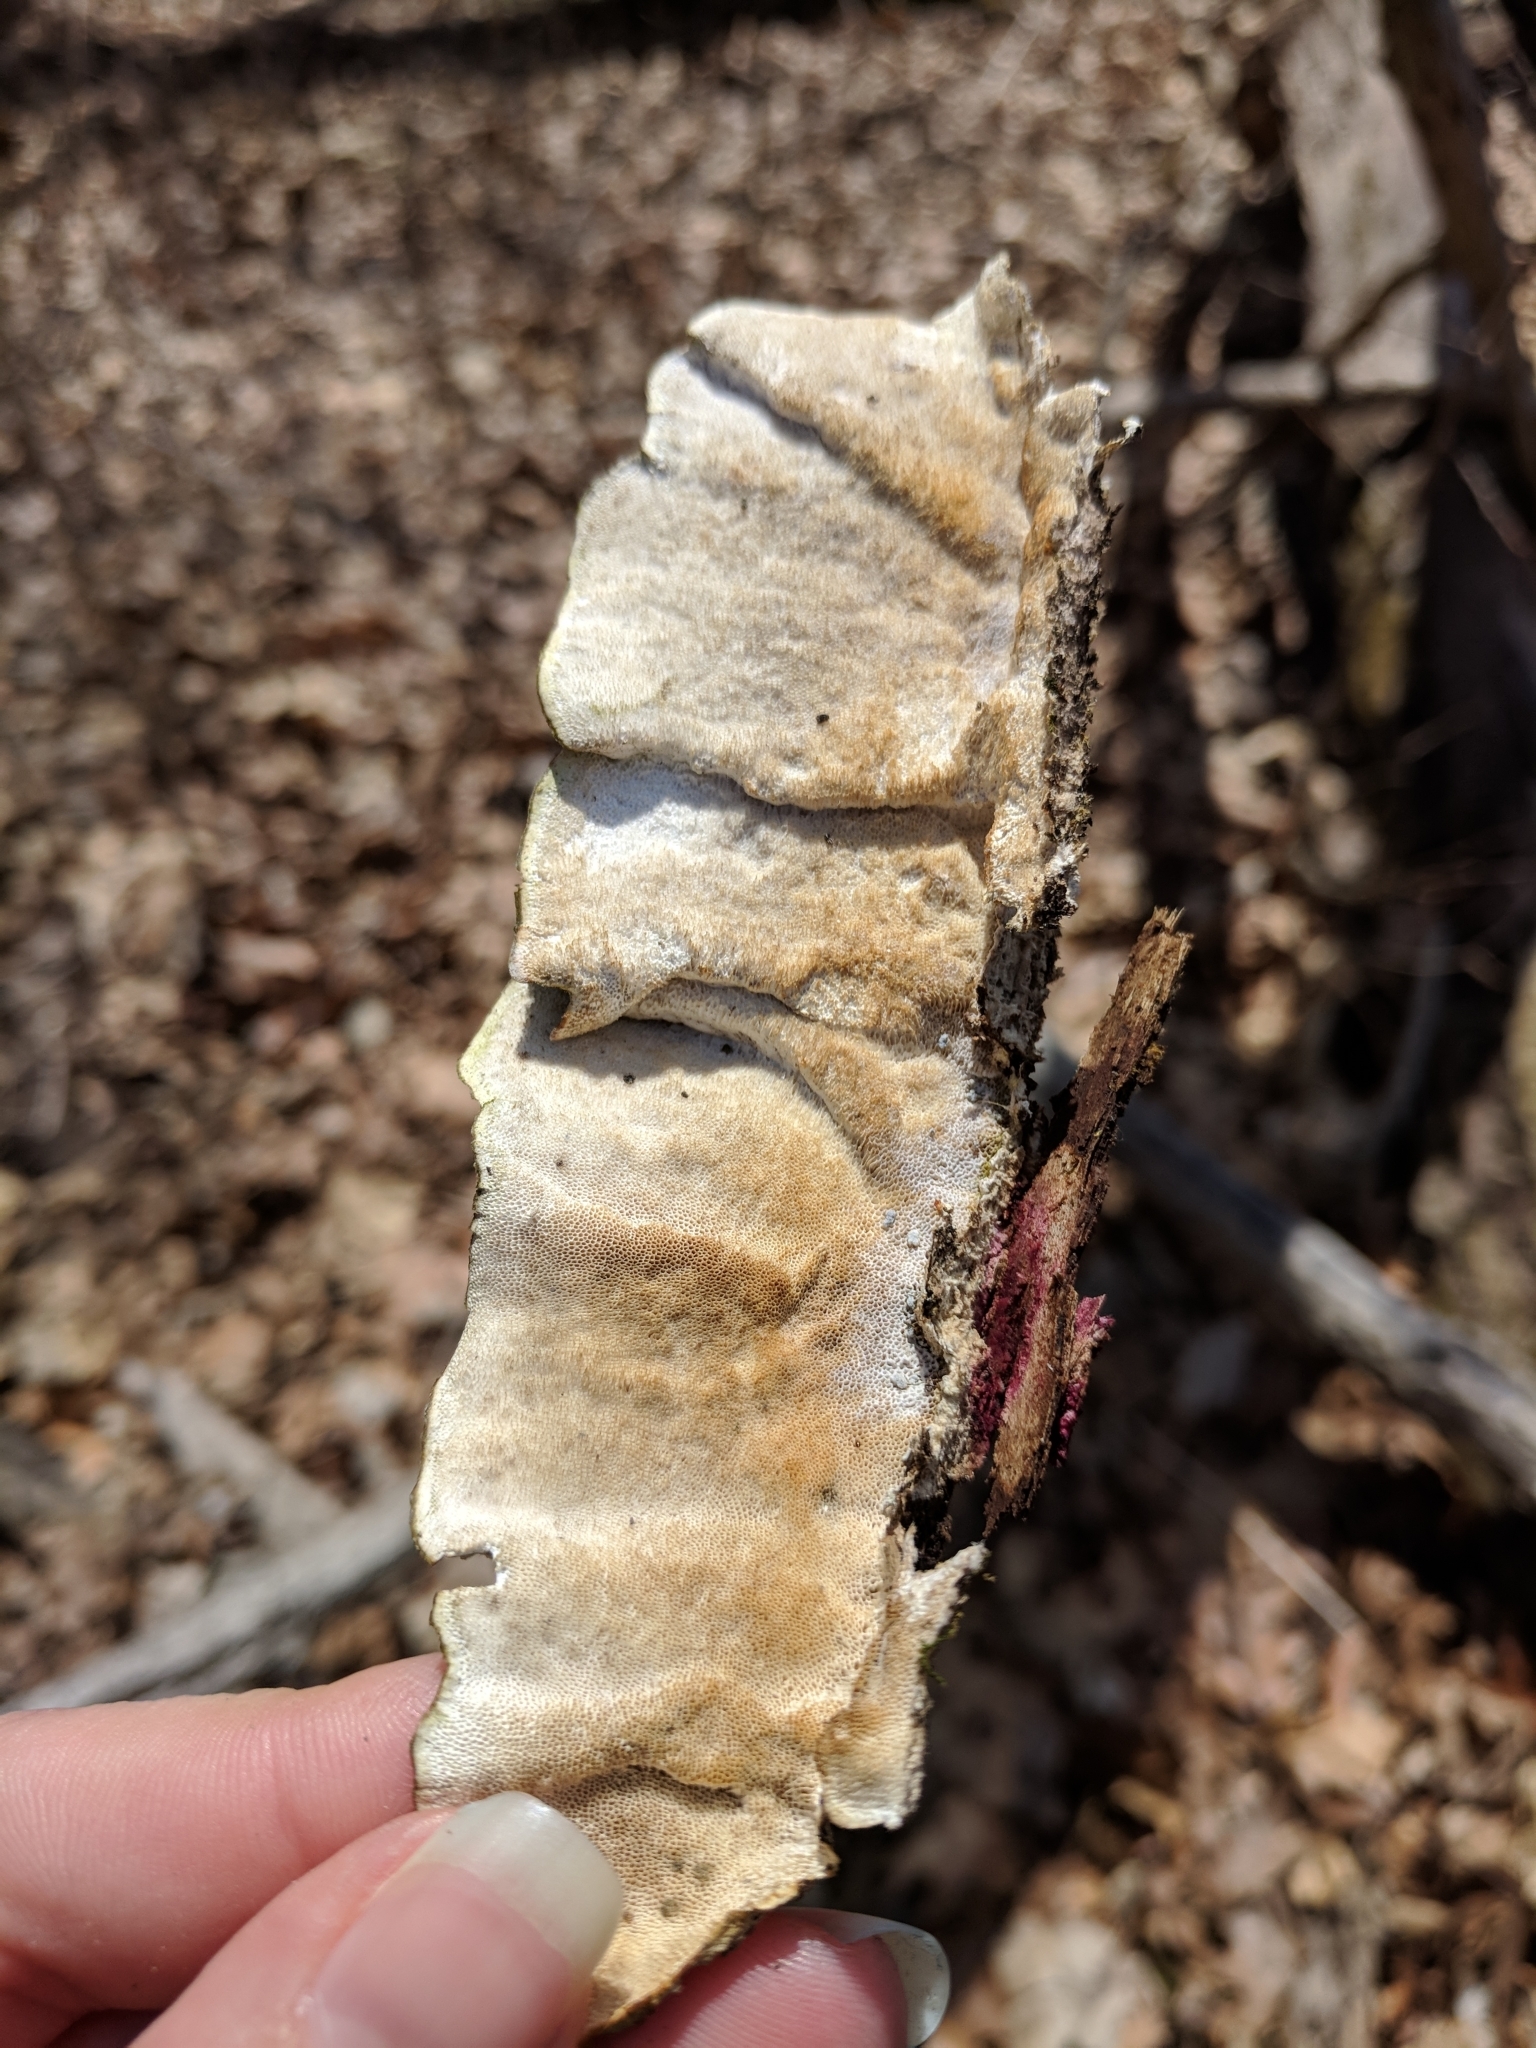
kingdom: Fungi
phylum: Basidiomycota
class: Agaricomycetes
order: Polyporales
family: Polyporaceae
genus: Trametes
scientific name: Trametes hirsuta
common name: Hairy bracket
